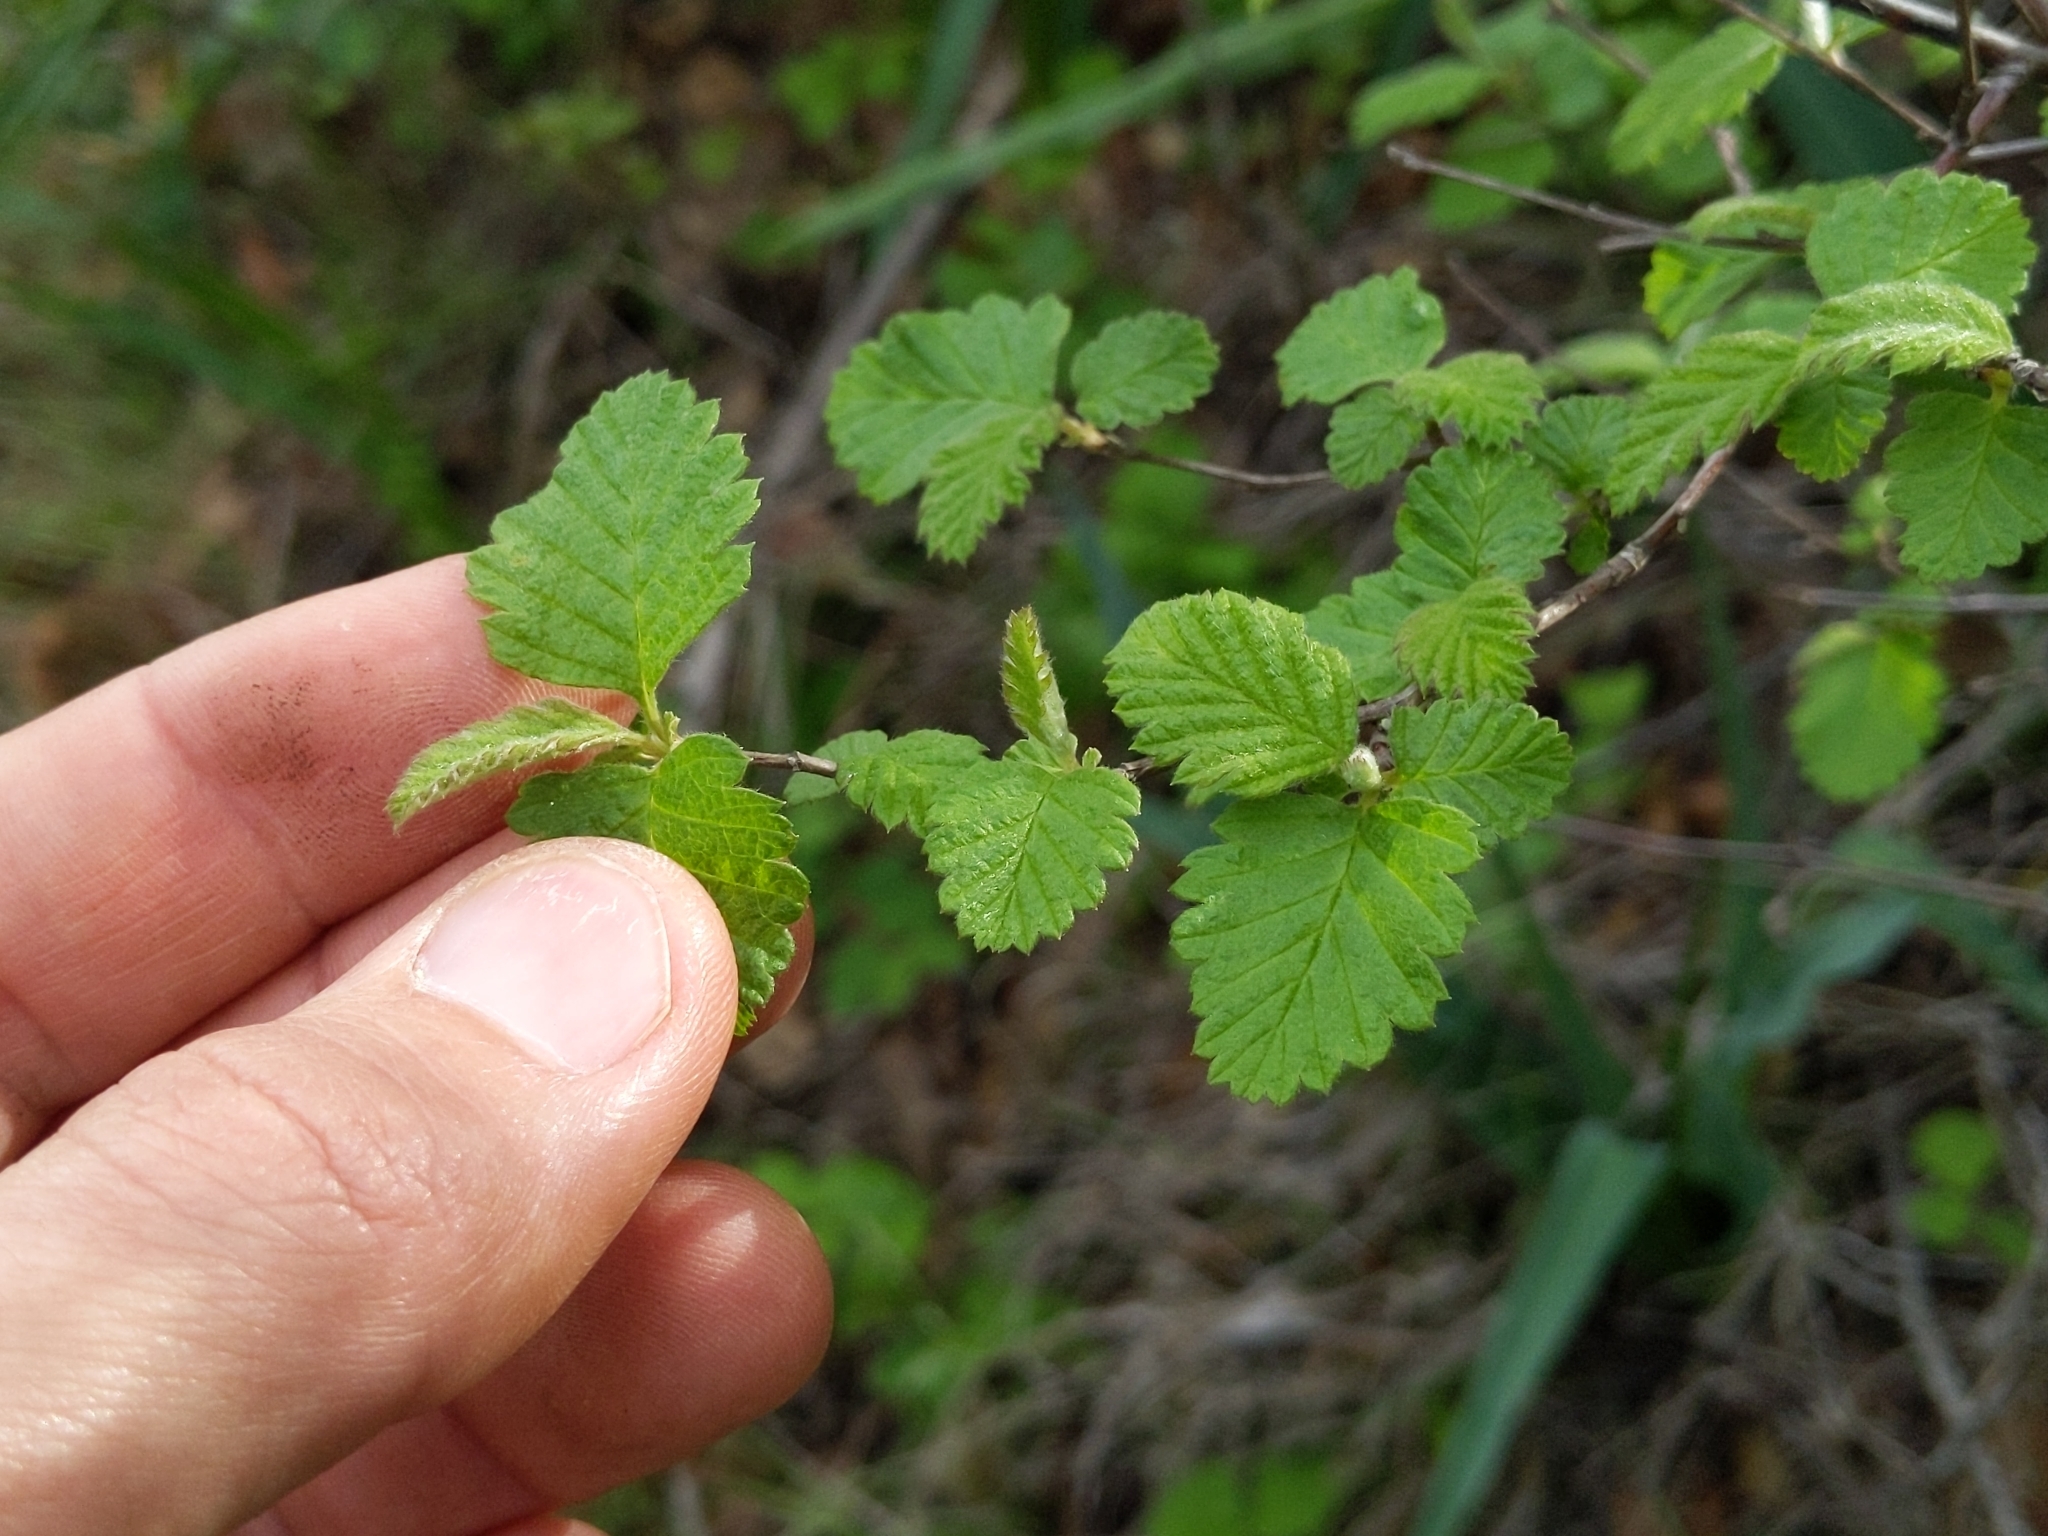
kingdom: Plantae
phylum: Tracheophyta
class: Magnoliopsida
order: Rosales
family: Rosaceae
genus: Holodiscus
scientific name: Holodiscus discolor
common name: Oceanspray
